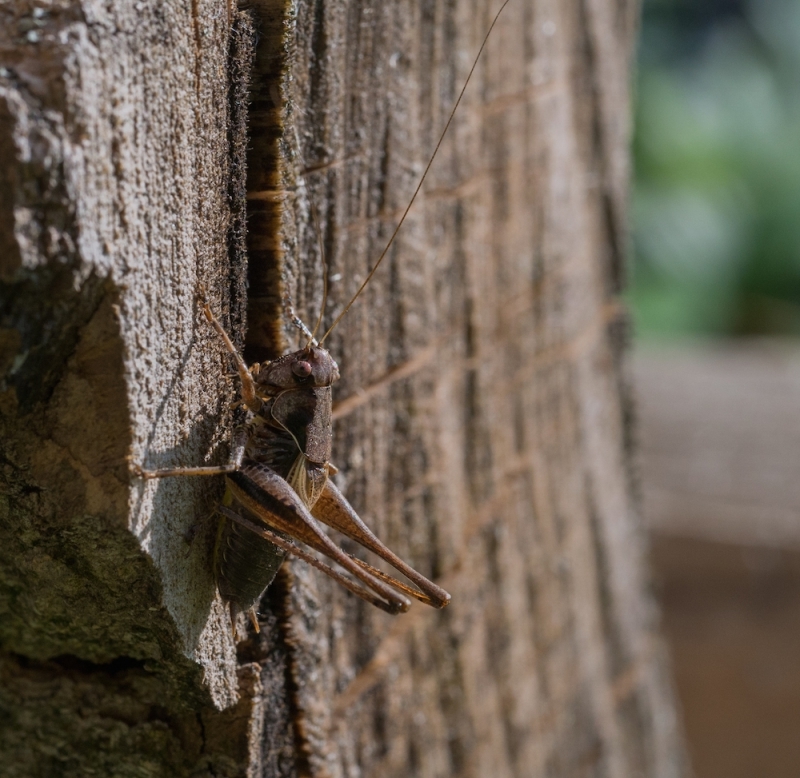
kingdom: Animalia
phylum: Arthropoda
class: Insecta
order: Orthoptera
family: Tettigoniidae
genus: Pholidoptera
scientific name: Pholidoptera griseoaptera
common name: Dark bush-cricket
